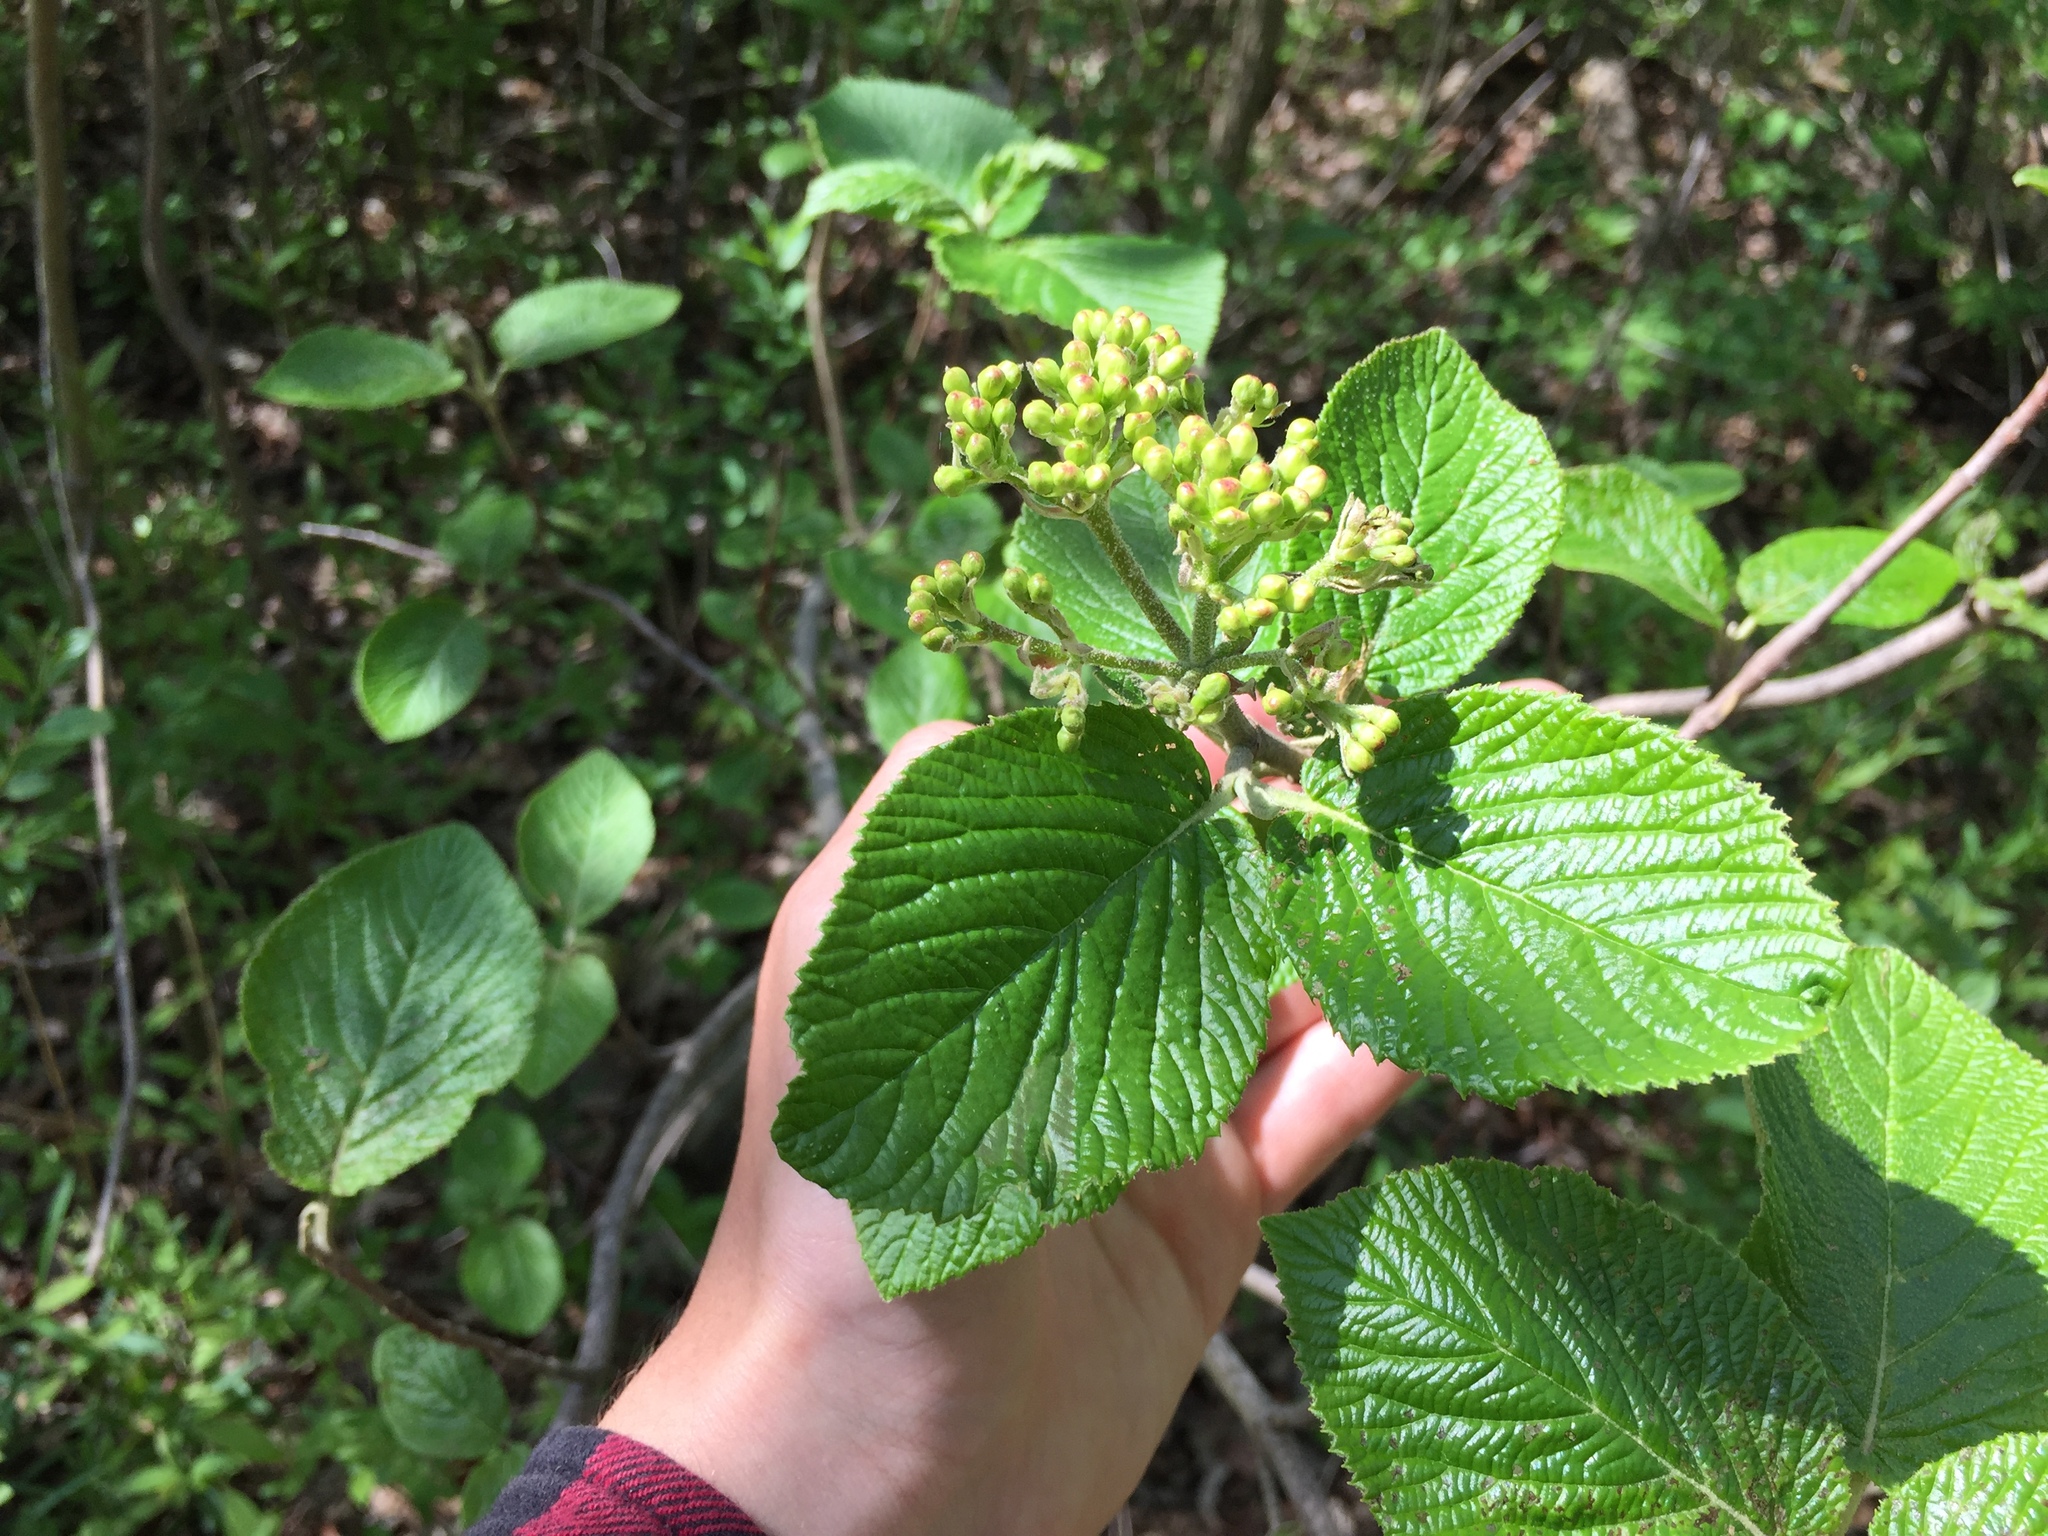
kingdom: Plantae
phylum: Tracheophyta
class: Magnoliopsida
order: Dipsacales
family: Viburnaceae
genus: Viburnum
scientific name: Viburnum lantana
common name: Wayfaring tree
